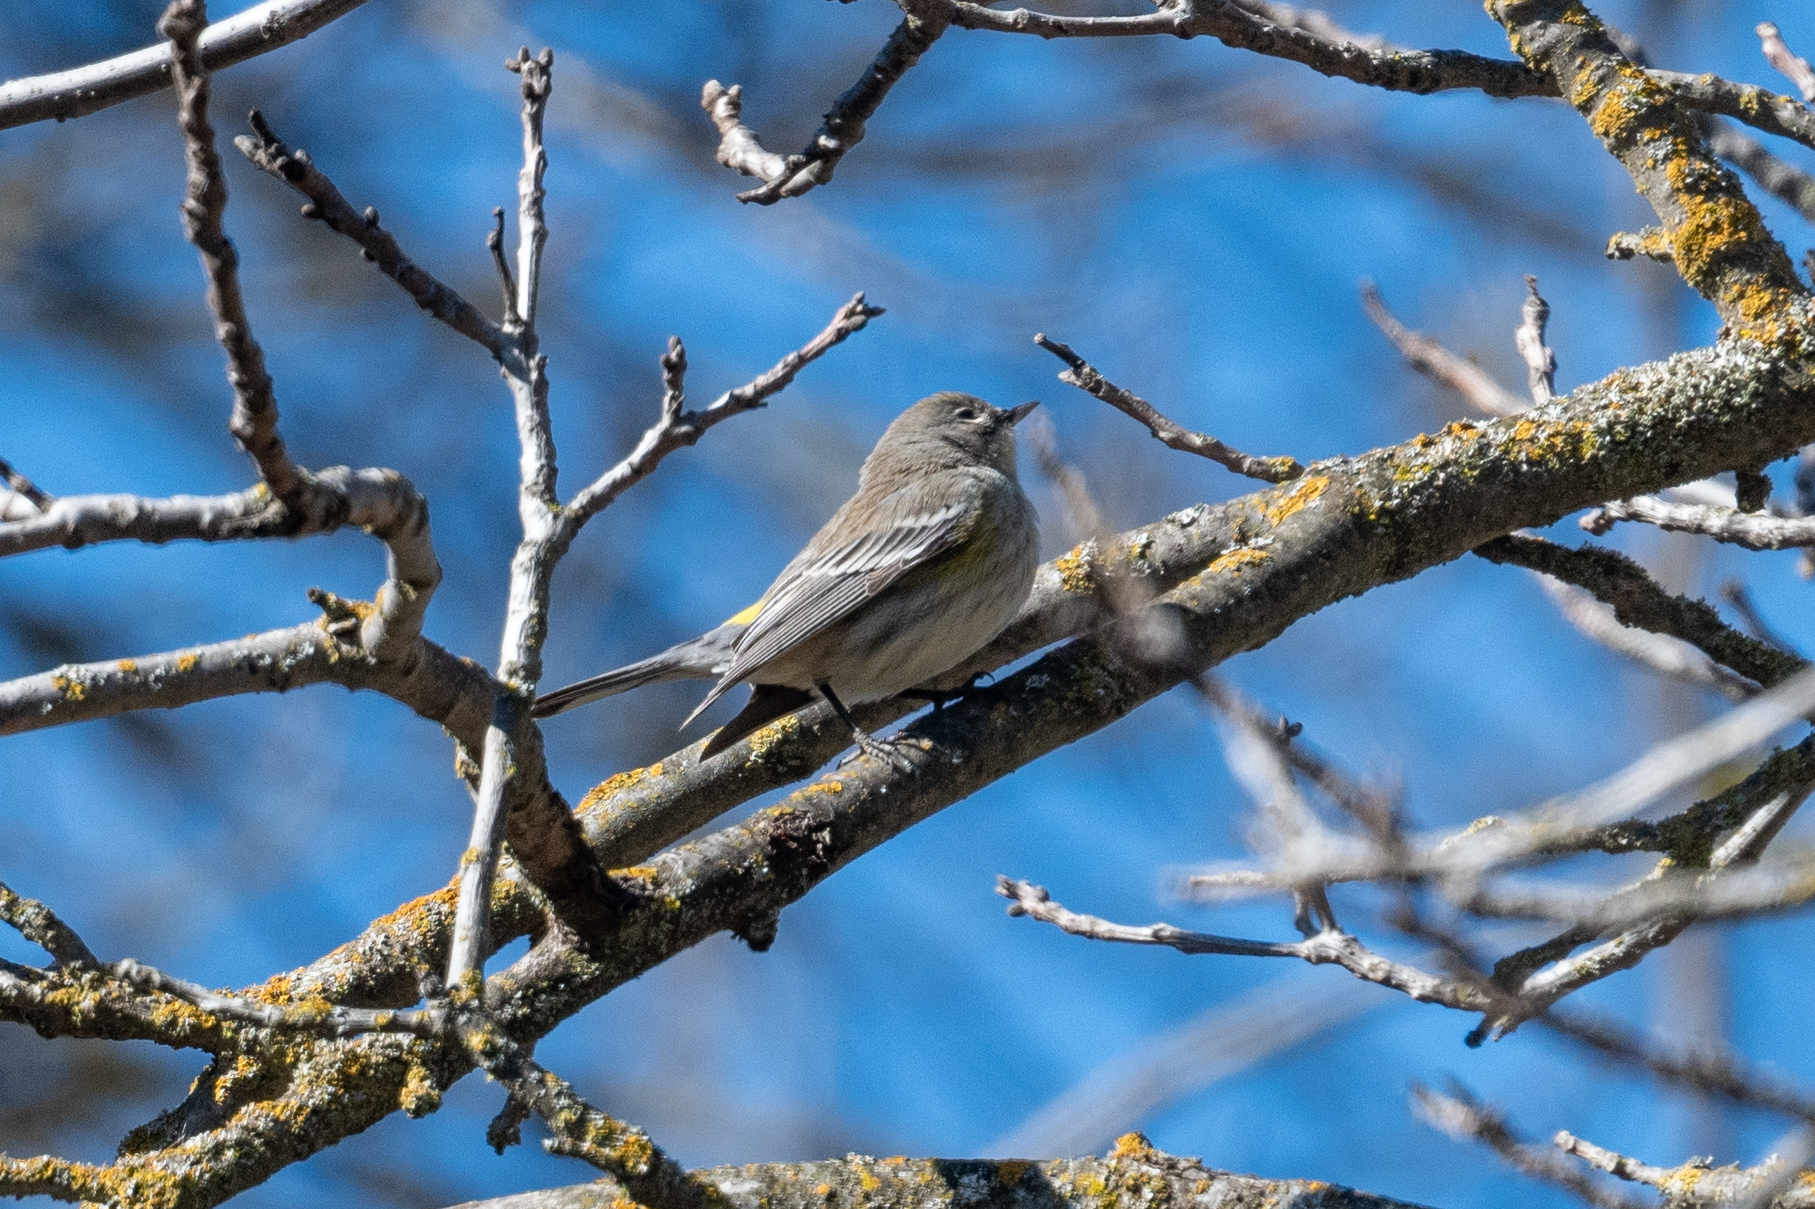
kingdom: Animalia
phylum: Chordata
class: Aves
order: Passeriformes
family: Parulidae
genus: Setophaga
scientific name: Setophaga coronata
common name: Myrtle warbler
